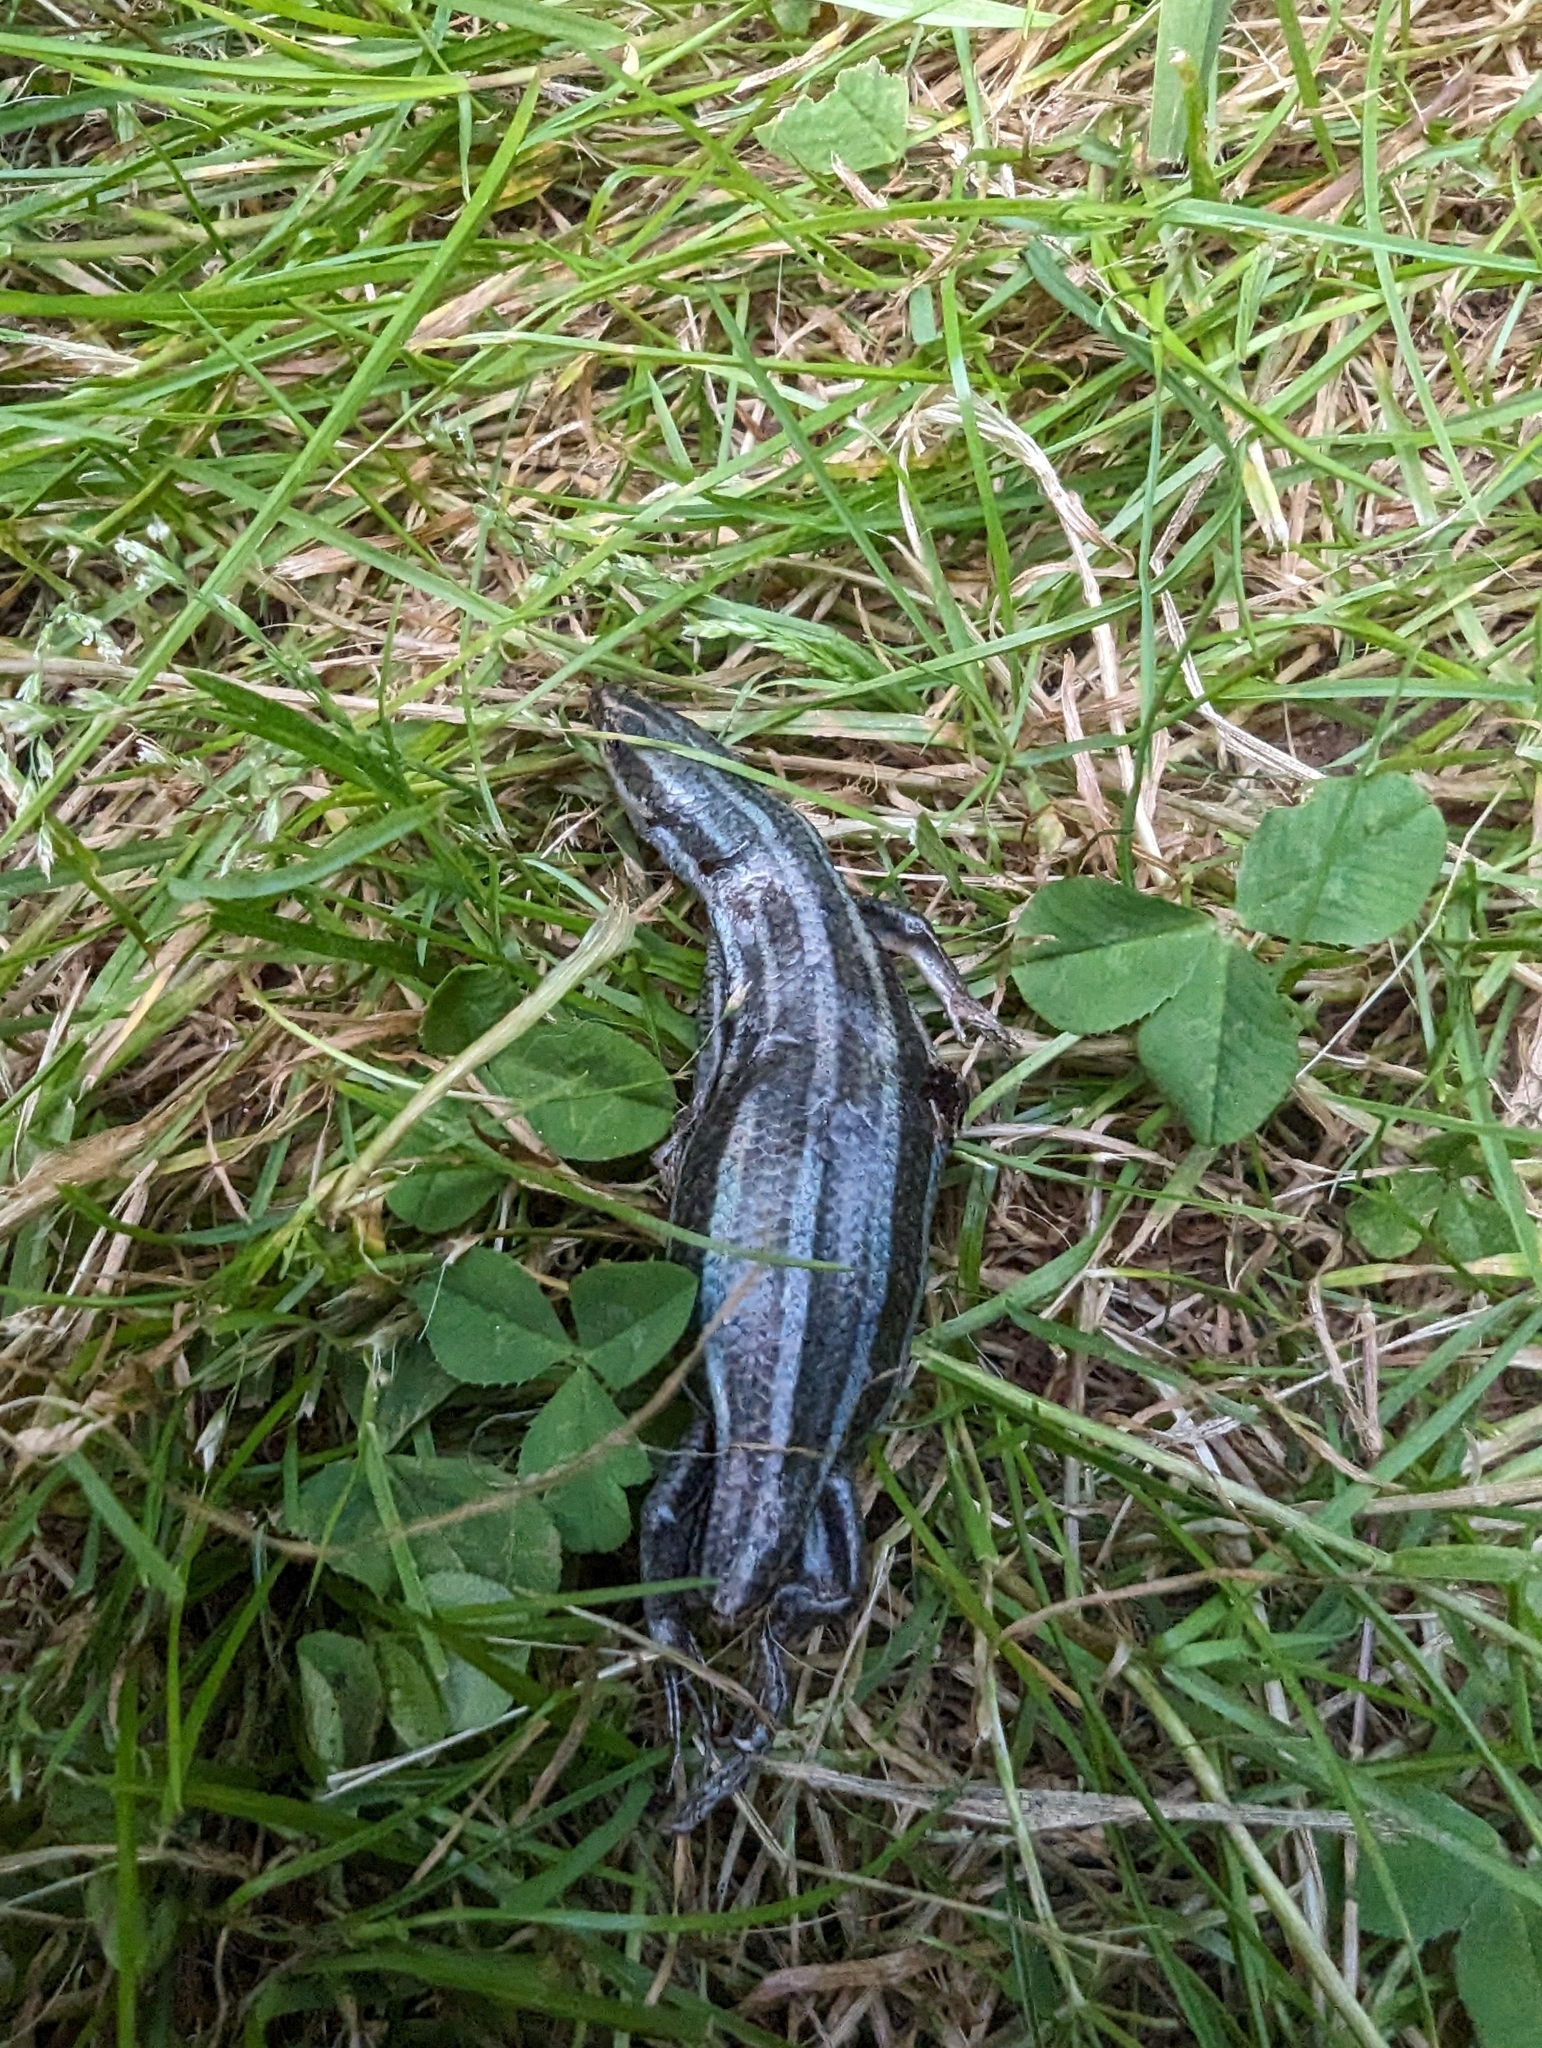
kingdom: Animalia
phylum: Chordata
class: Squamata
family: Scincidae
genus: Plestiodon
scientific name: Plestiodon fasciatus
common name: Five-lined skink
